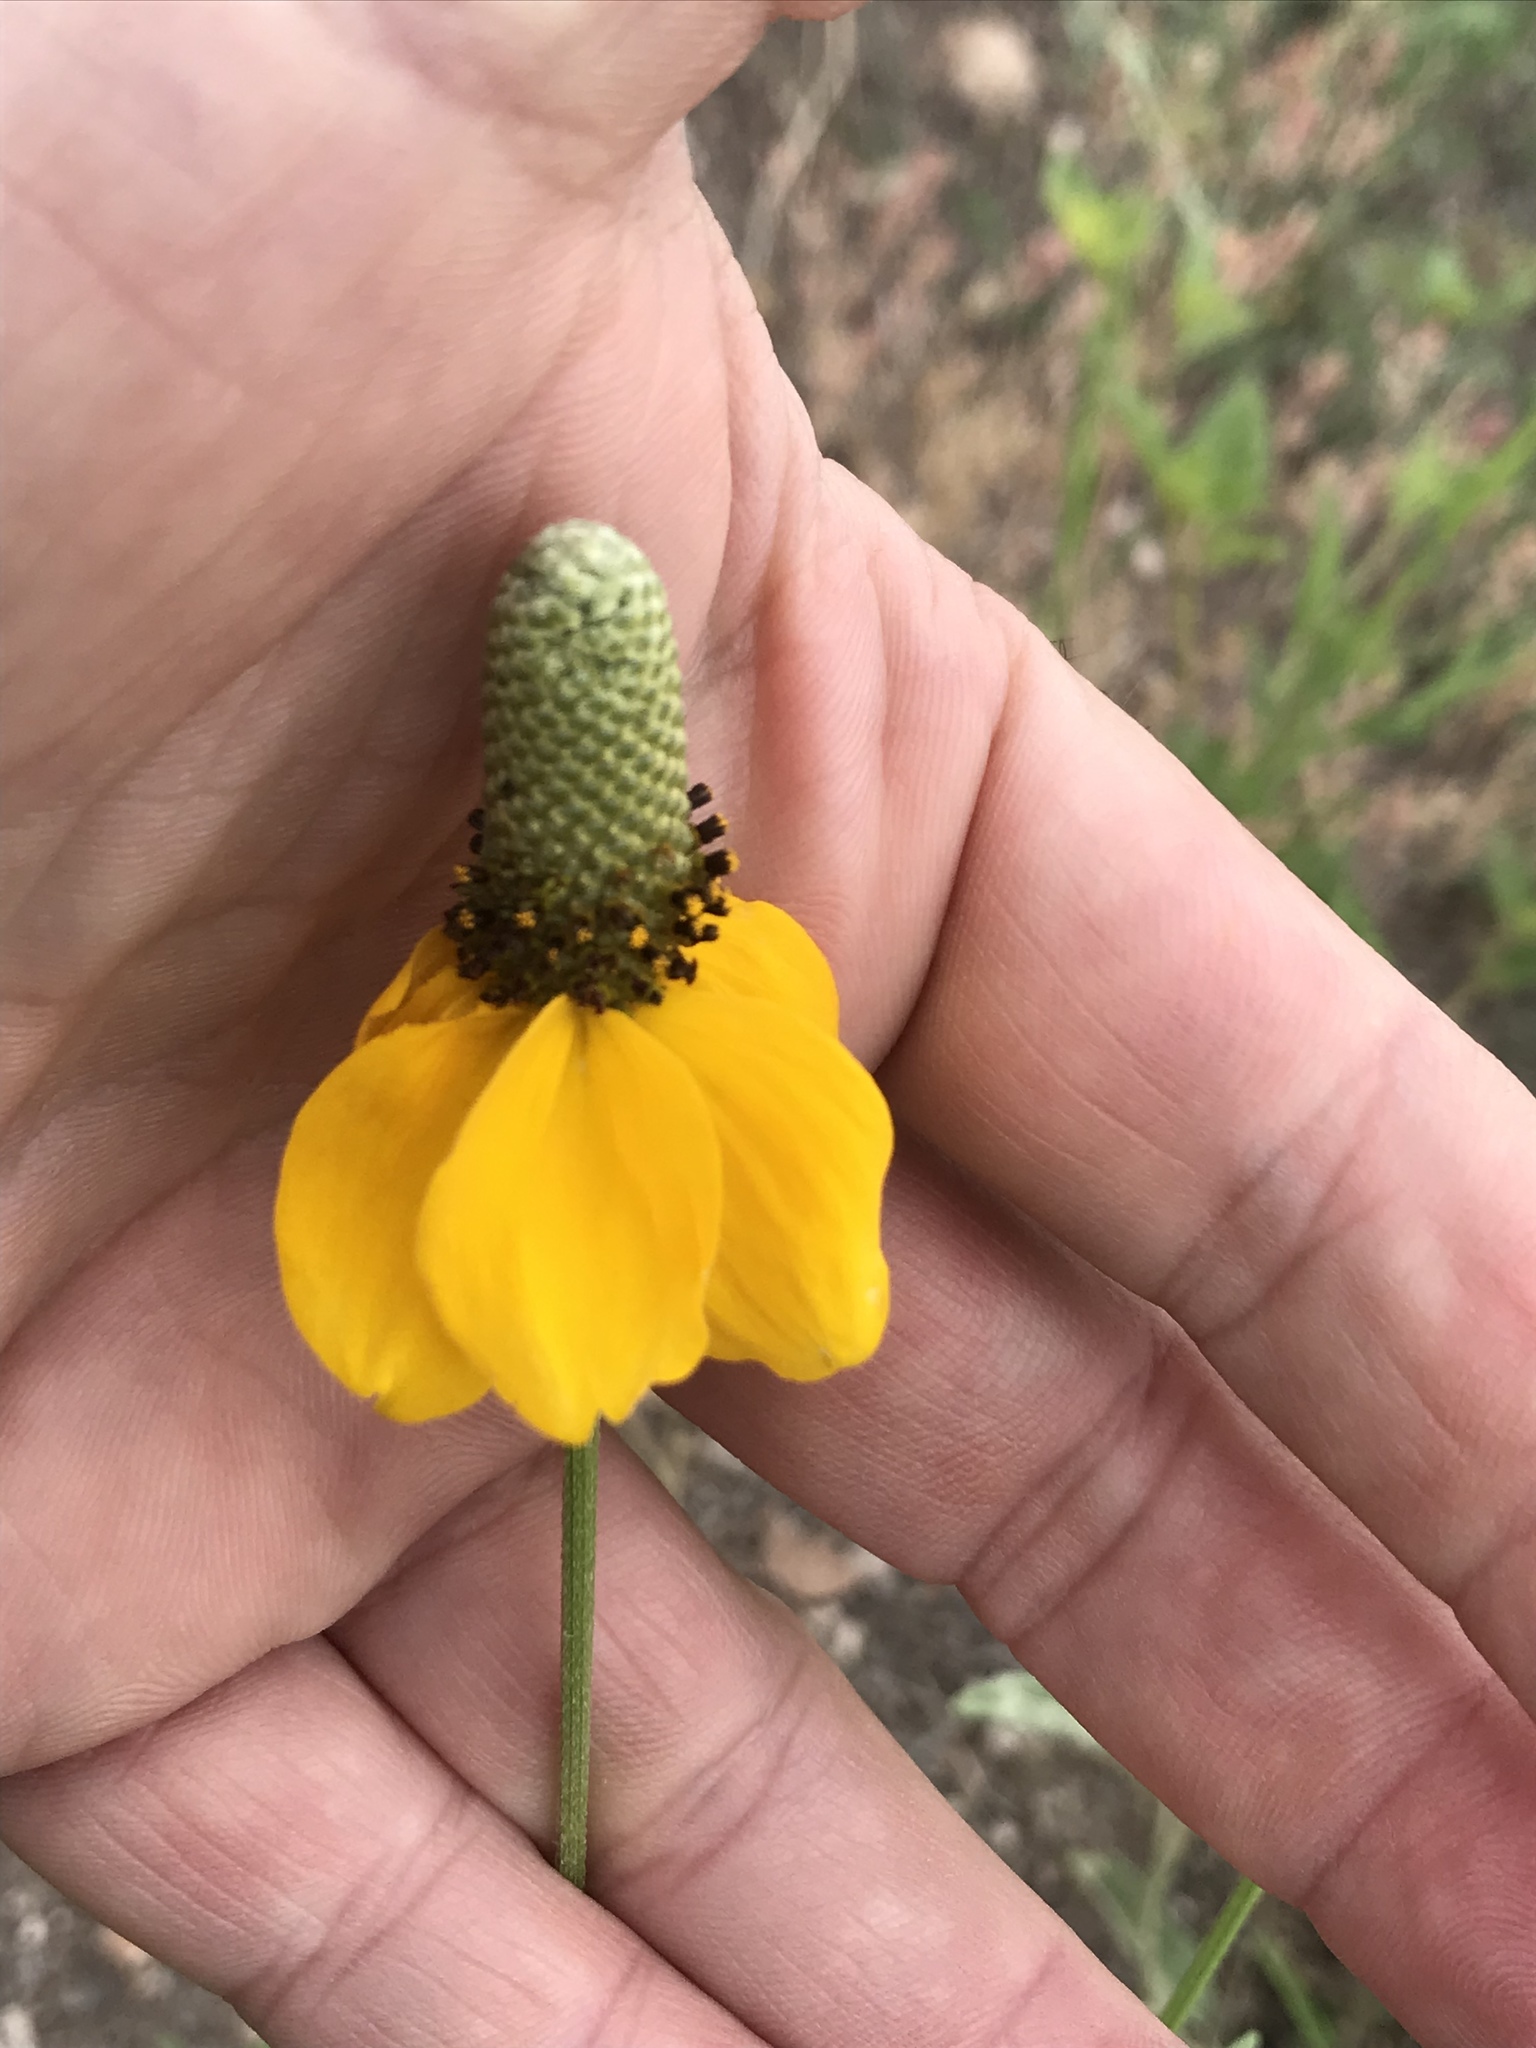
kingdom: Plantae
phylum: Tracheophyta
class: Magnoliopsida
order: Asterales
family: Asteraceae
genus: Ratibida
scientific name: Ratibida columnifera
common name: Prairie coneflower
